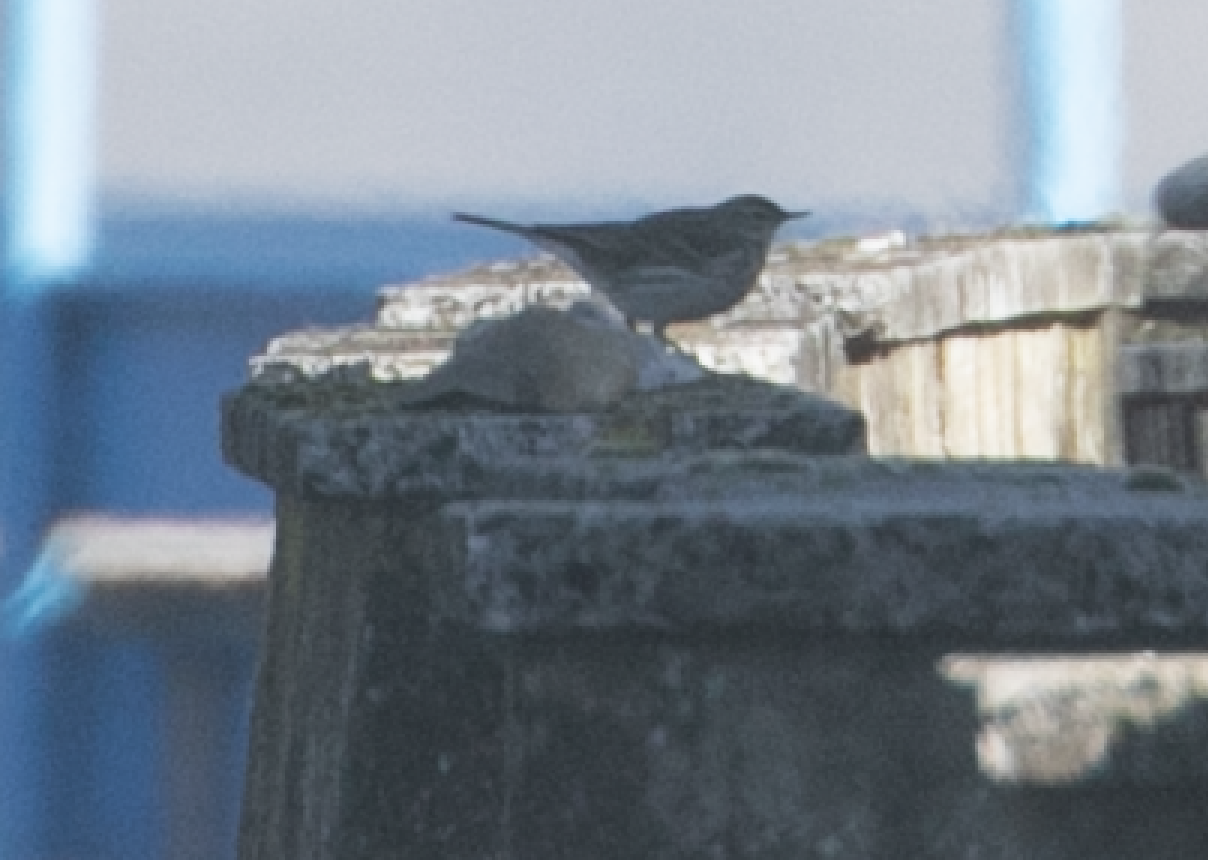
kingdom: Animalia
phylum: Chordata
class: Aves
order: Passeriformes
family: Motacillidae
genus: Anthus
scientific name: Anthus spinoletta
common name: Water pipit
